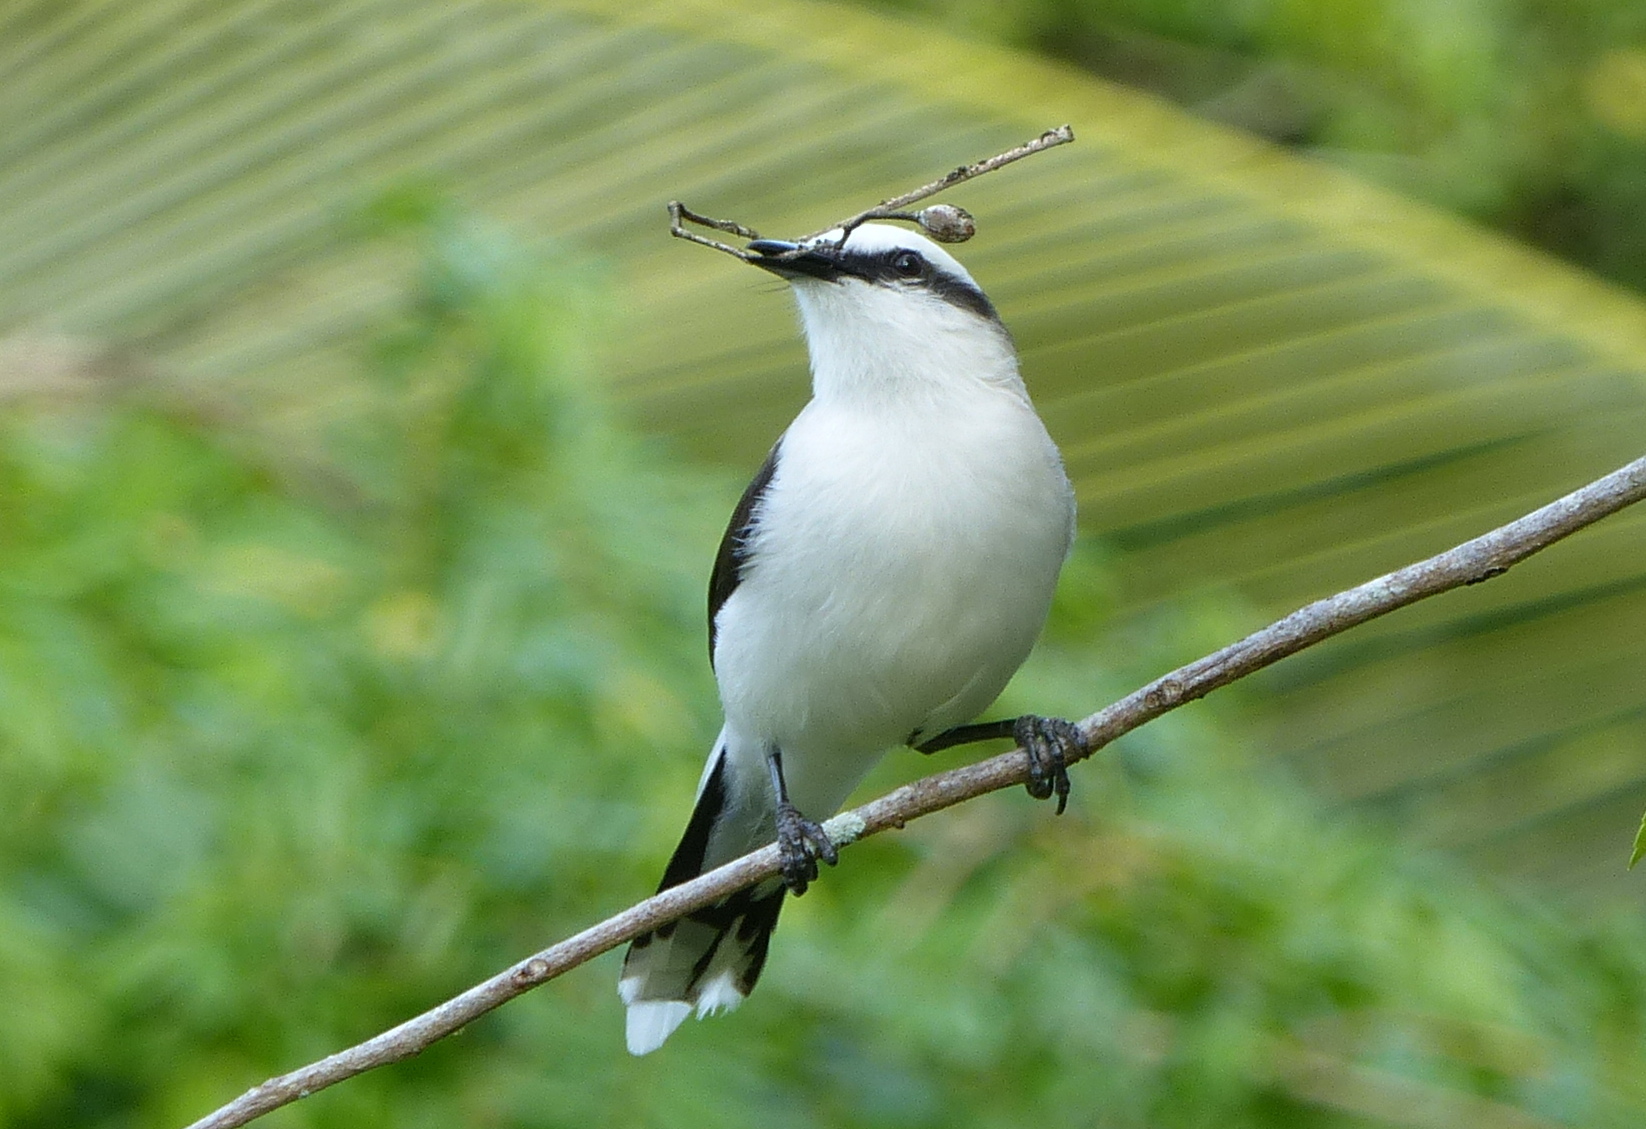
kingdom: Animalia
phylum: Chordata
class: Aves
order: Passeriformes
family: Tyrannidae
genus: Fluvicola
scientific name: Fluvicola nengeta
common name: Masked water tyrant
